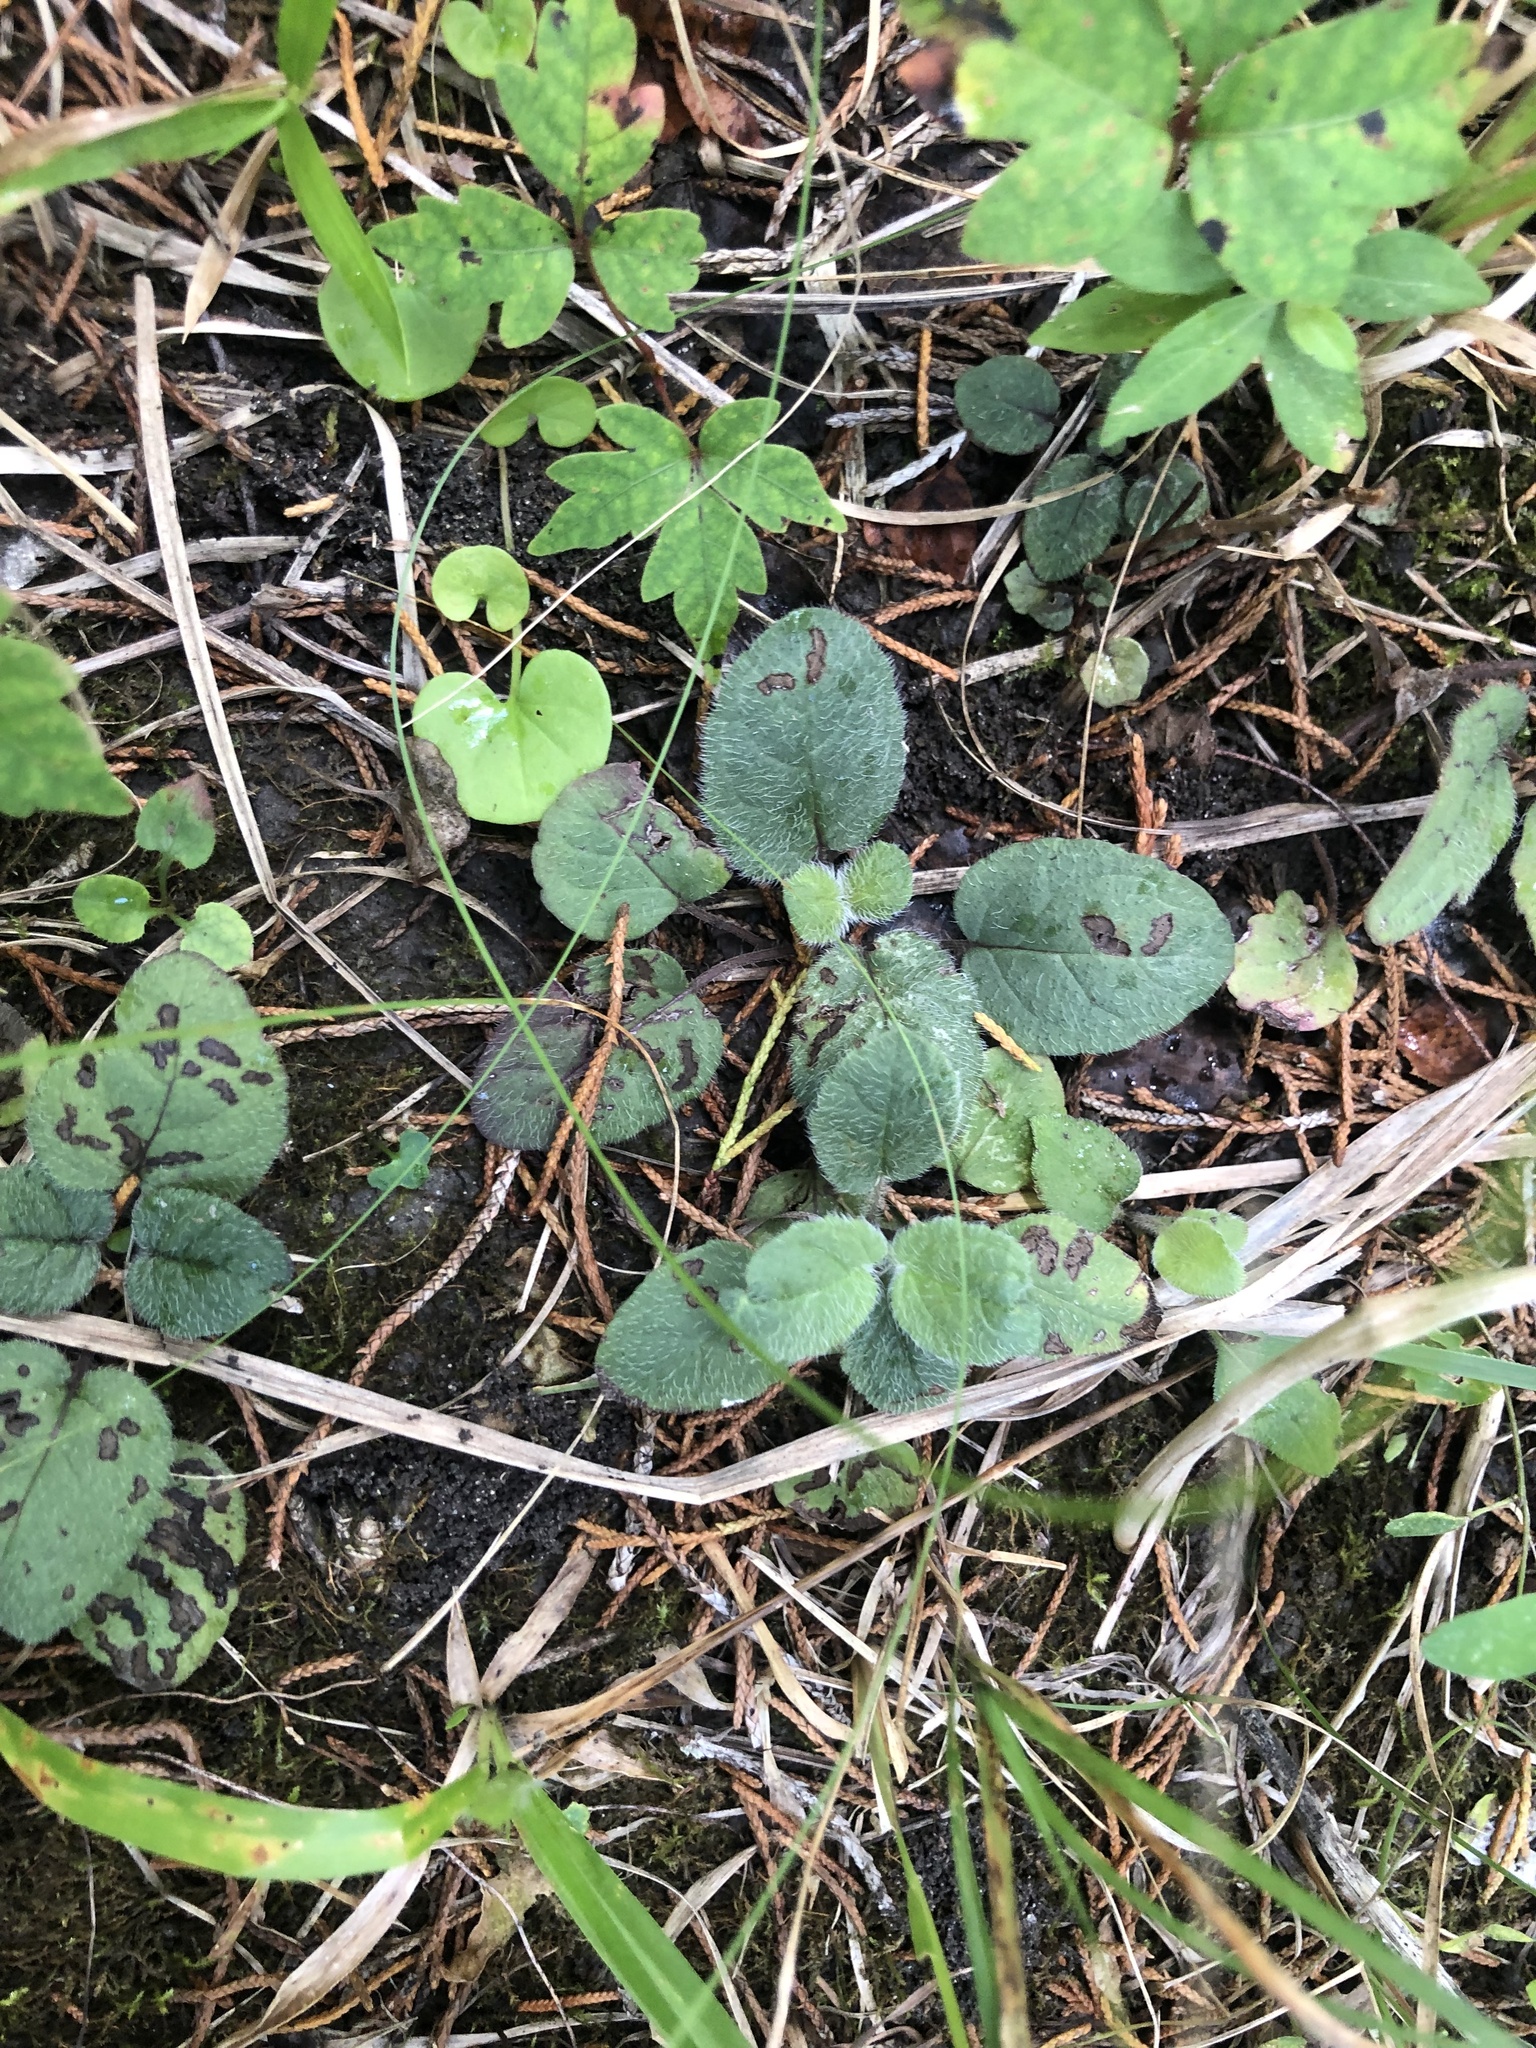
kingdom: Plantae
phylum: Tracheophyta
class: Magnoliopsida
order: Lamiales
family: Lamiaceae
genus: Blephilia
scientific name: Blephilia ciliata
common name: Downy blephilia
